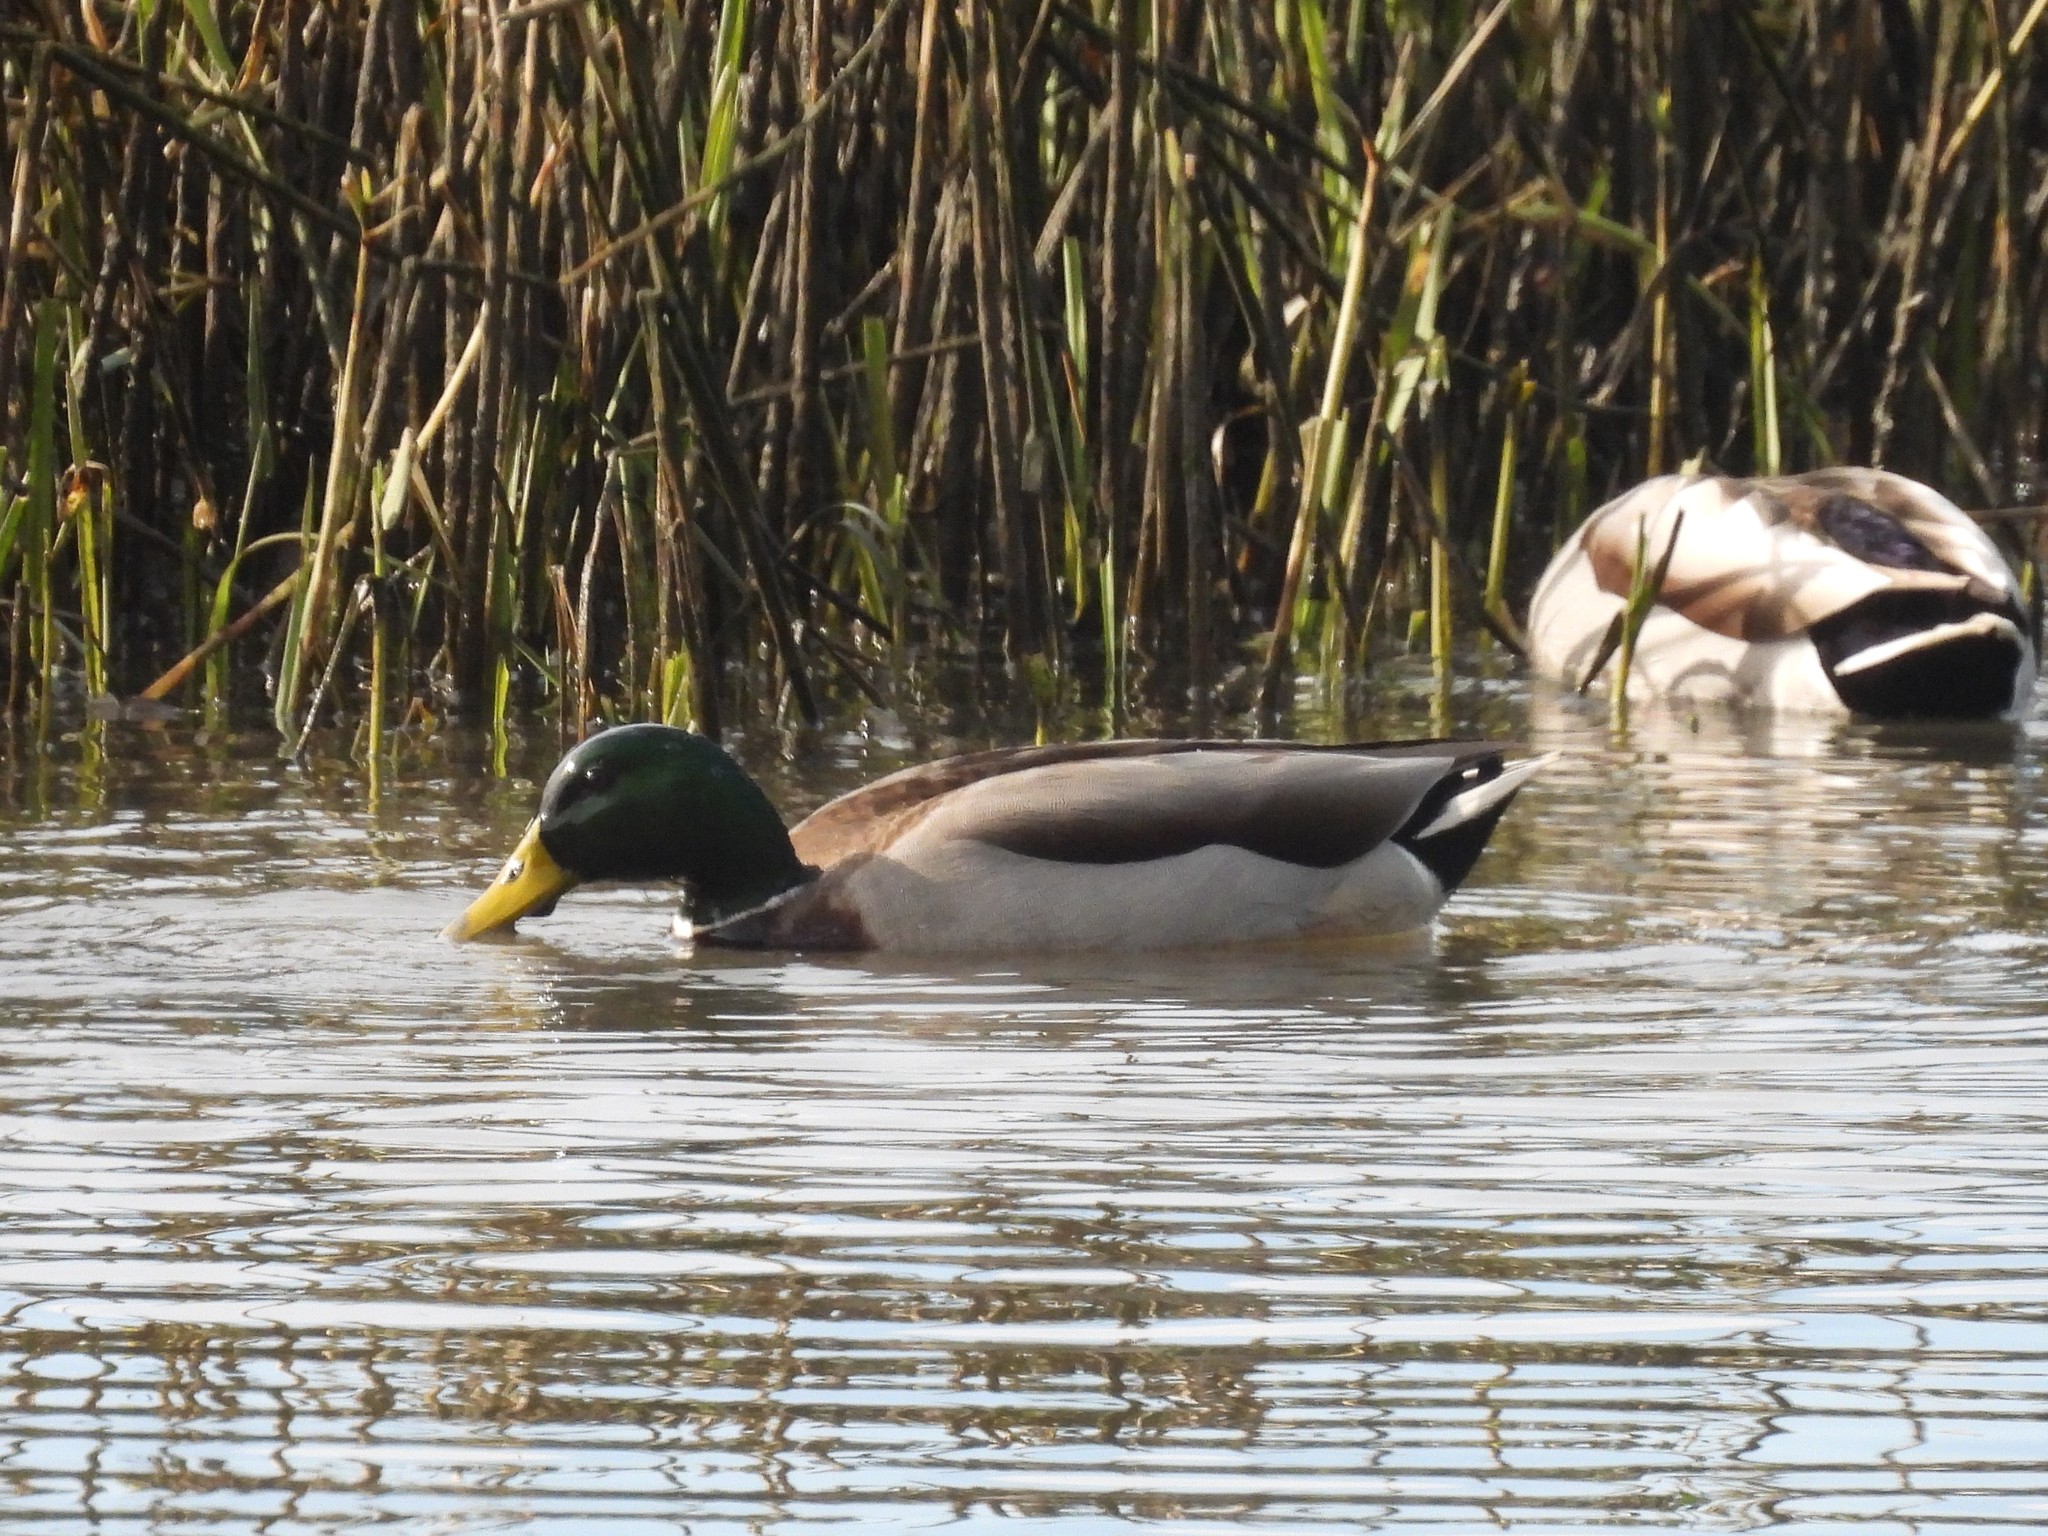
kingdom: Animalia
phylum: Chordata
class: Aves
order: Anseriformes
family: Anatidae
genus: Anas
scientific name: Anas platyrhynchos
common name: Mallard
